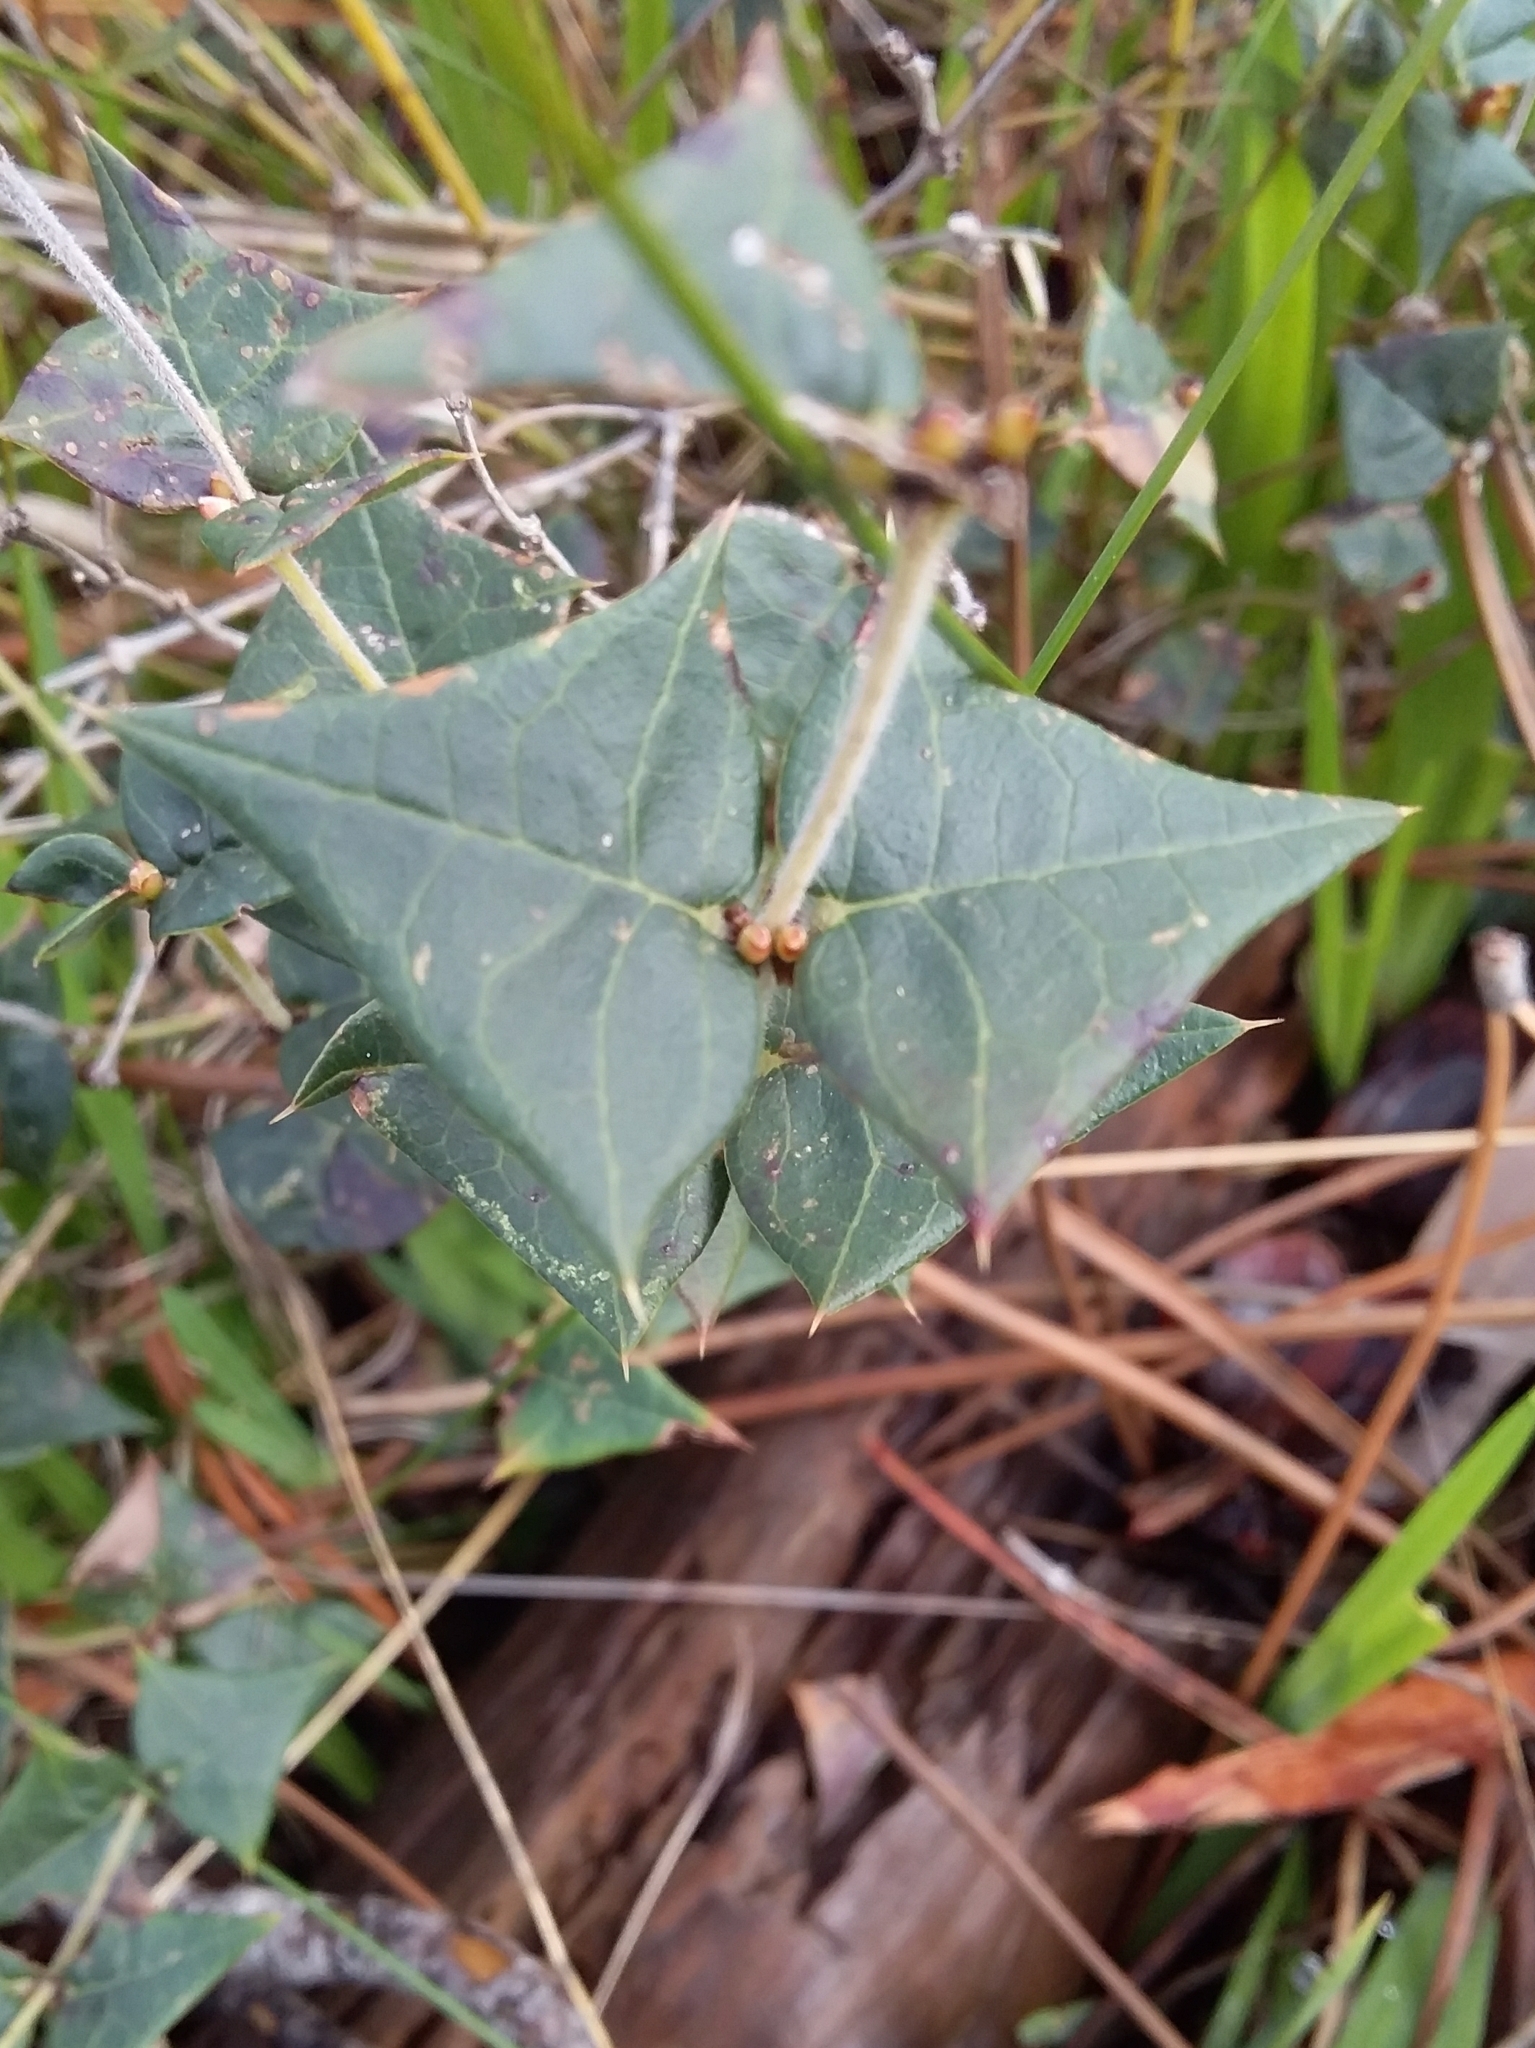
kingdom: Plantae
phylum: Tracheophyta
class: Magnoliopsida
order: Fabales
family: Fabaceae
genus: Platylobium
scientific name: Platylobium obtusangulum
